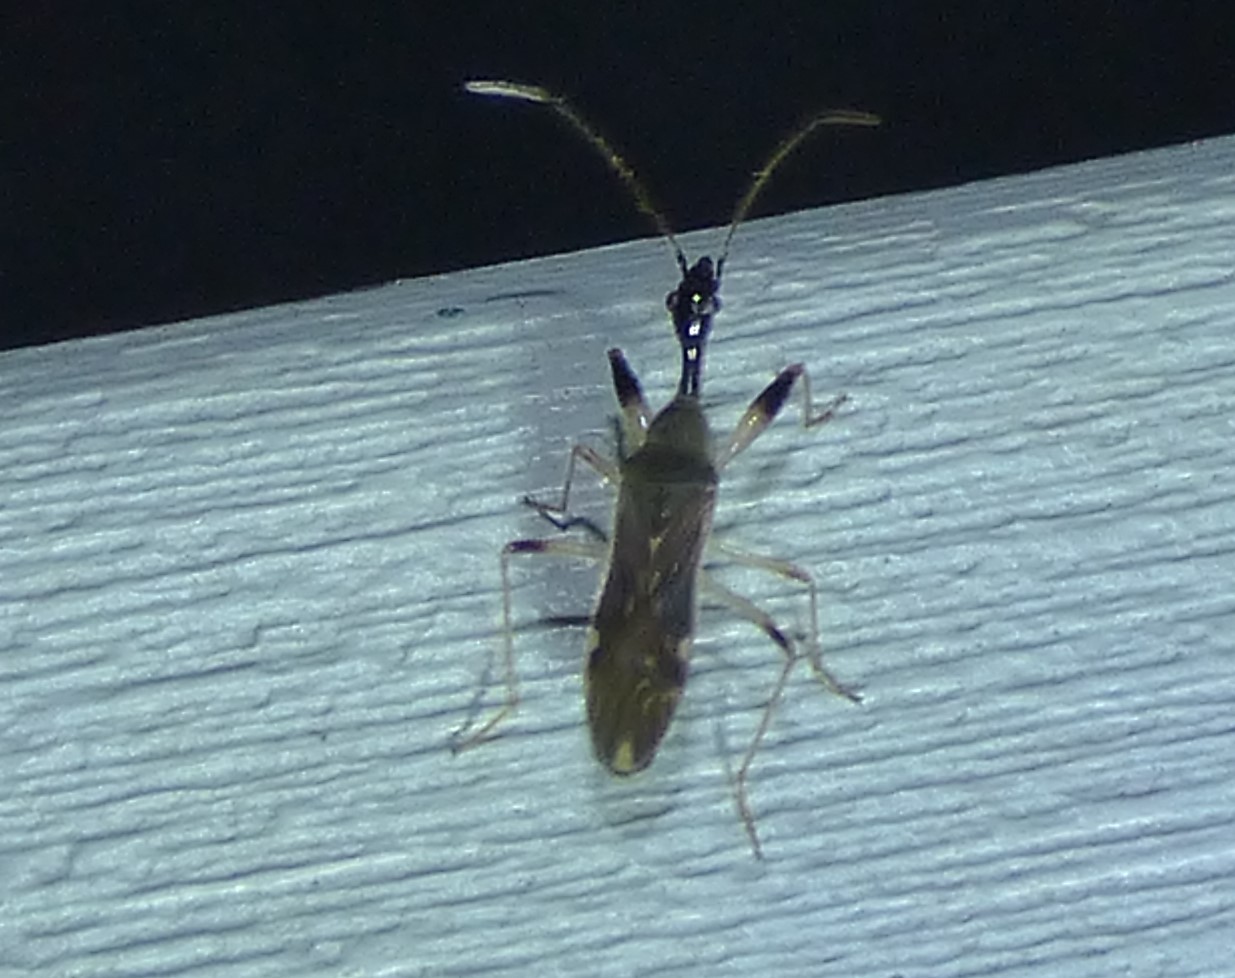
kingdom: Animalia
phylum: Arthropoda
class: Insecta
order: Hemiptera
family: Rhyparochromidae
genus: Myodocha
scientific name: Myodocha serripes
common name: Long-necked seed bug
